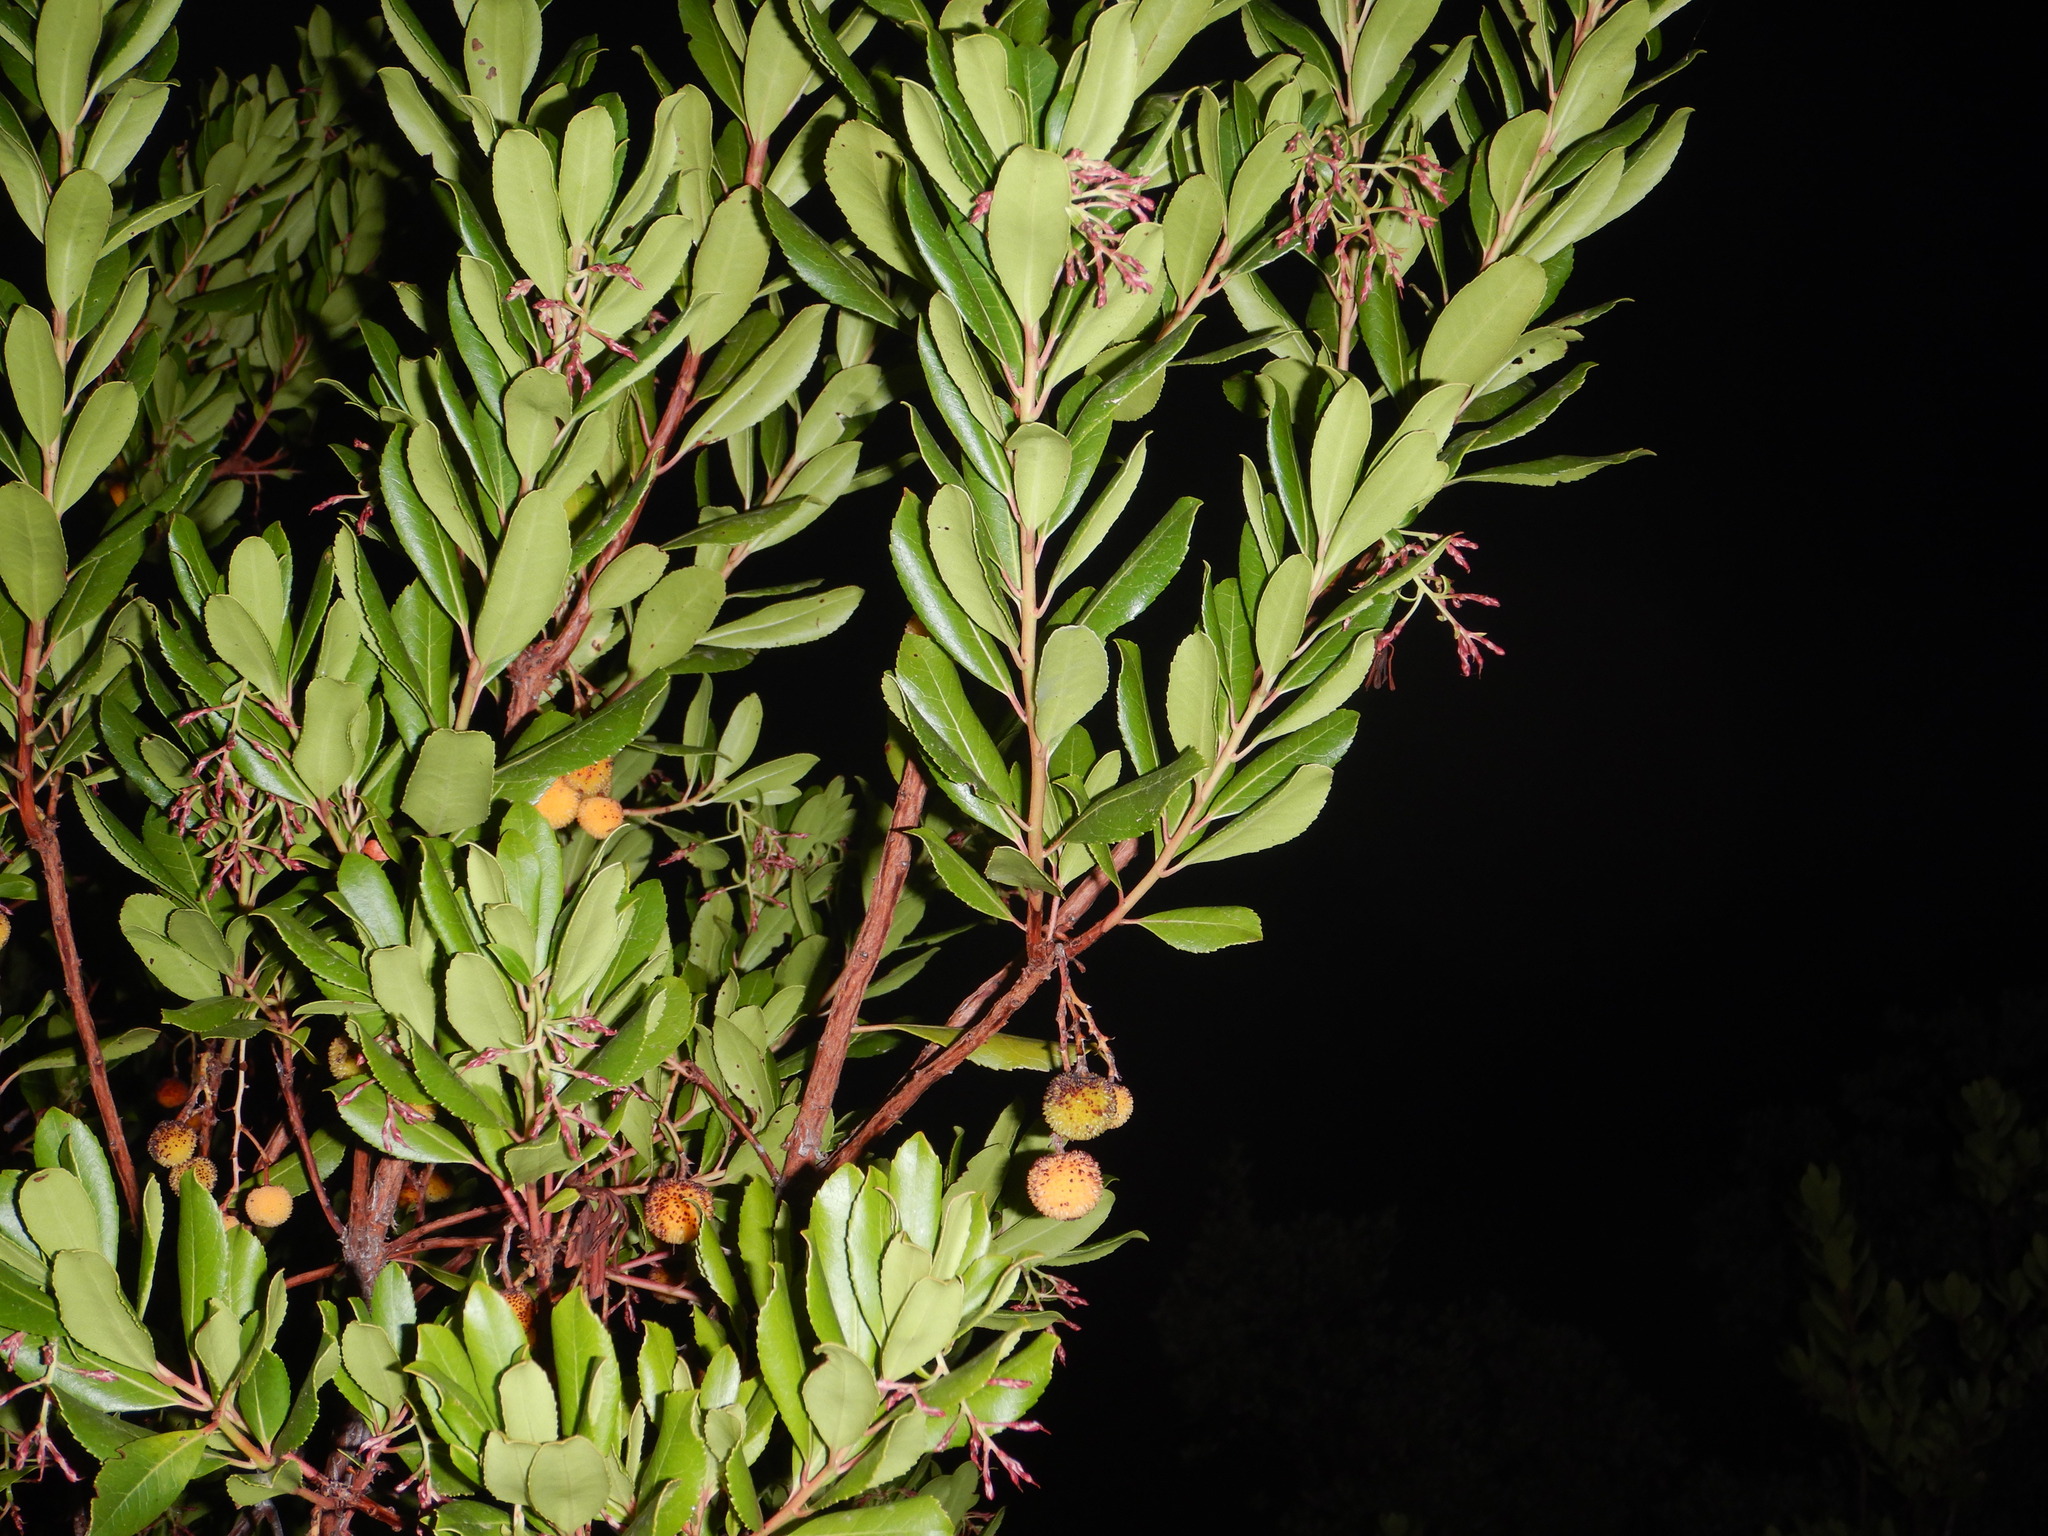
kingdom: Plantae
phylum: Tracheophyta
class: Magnoliopsida
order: Ericales
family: Ericaceae
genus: Arbutus
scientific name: Arbutus unedo
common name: Strawberry-tree
